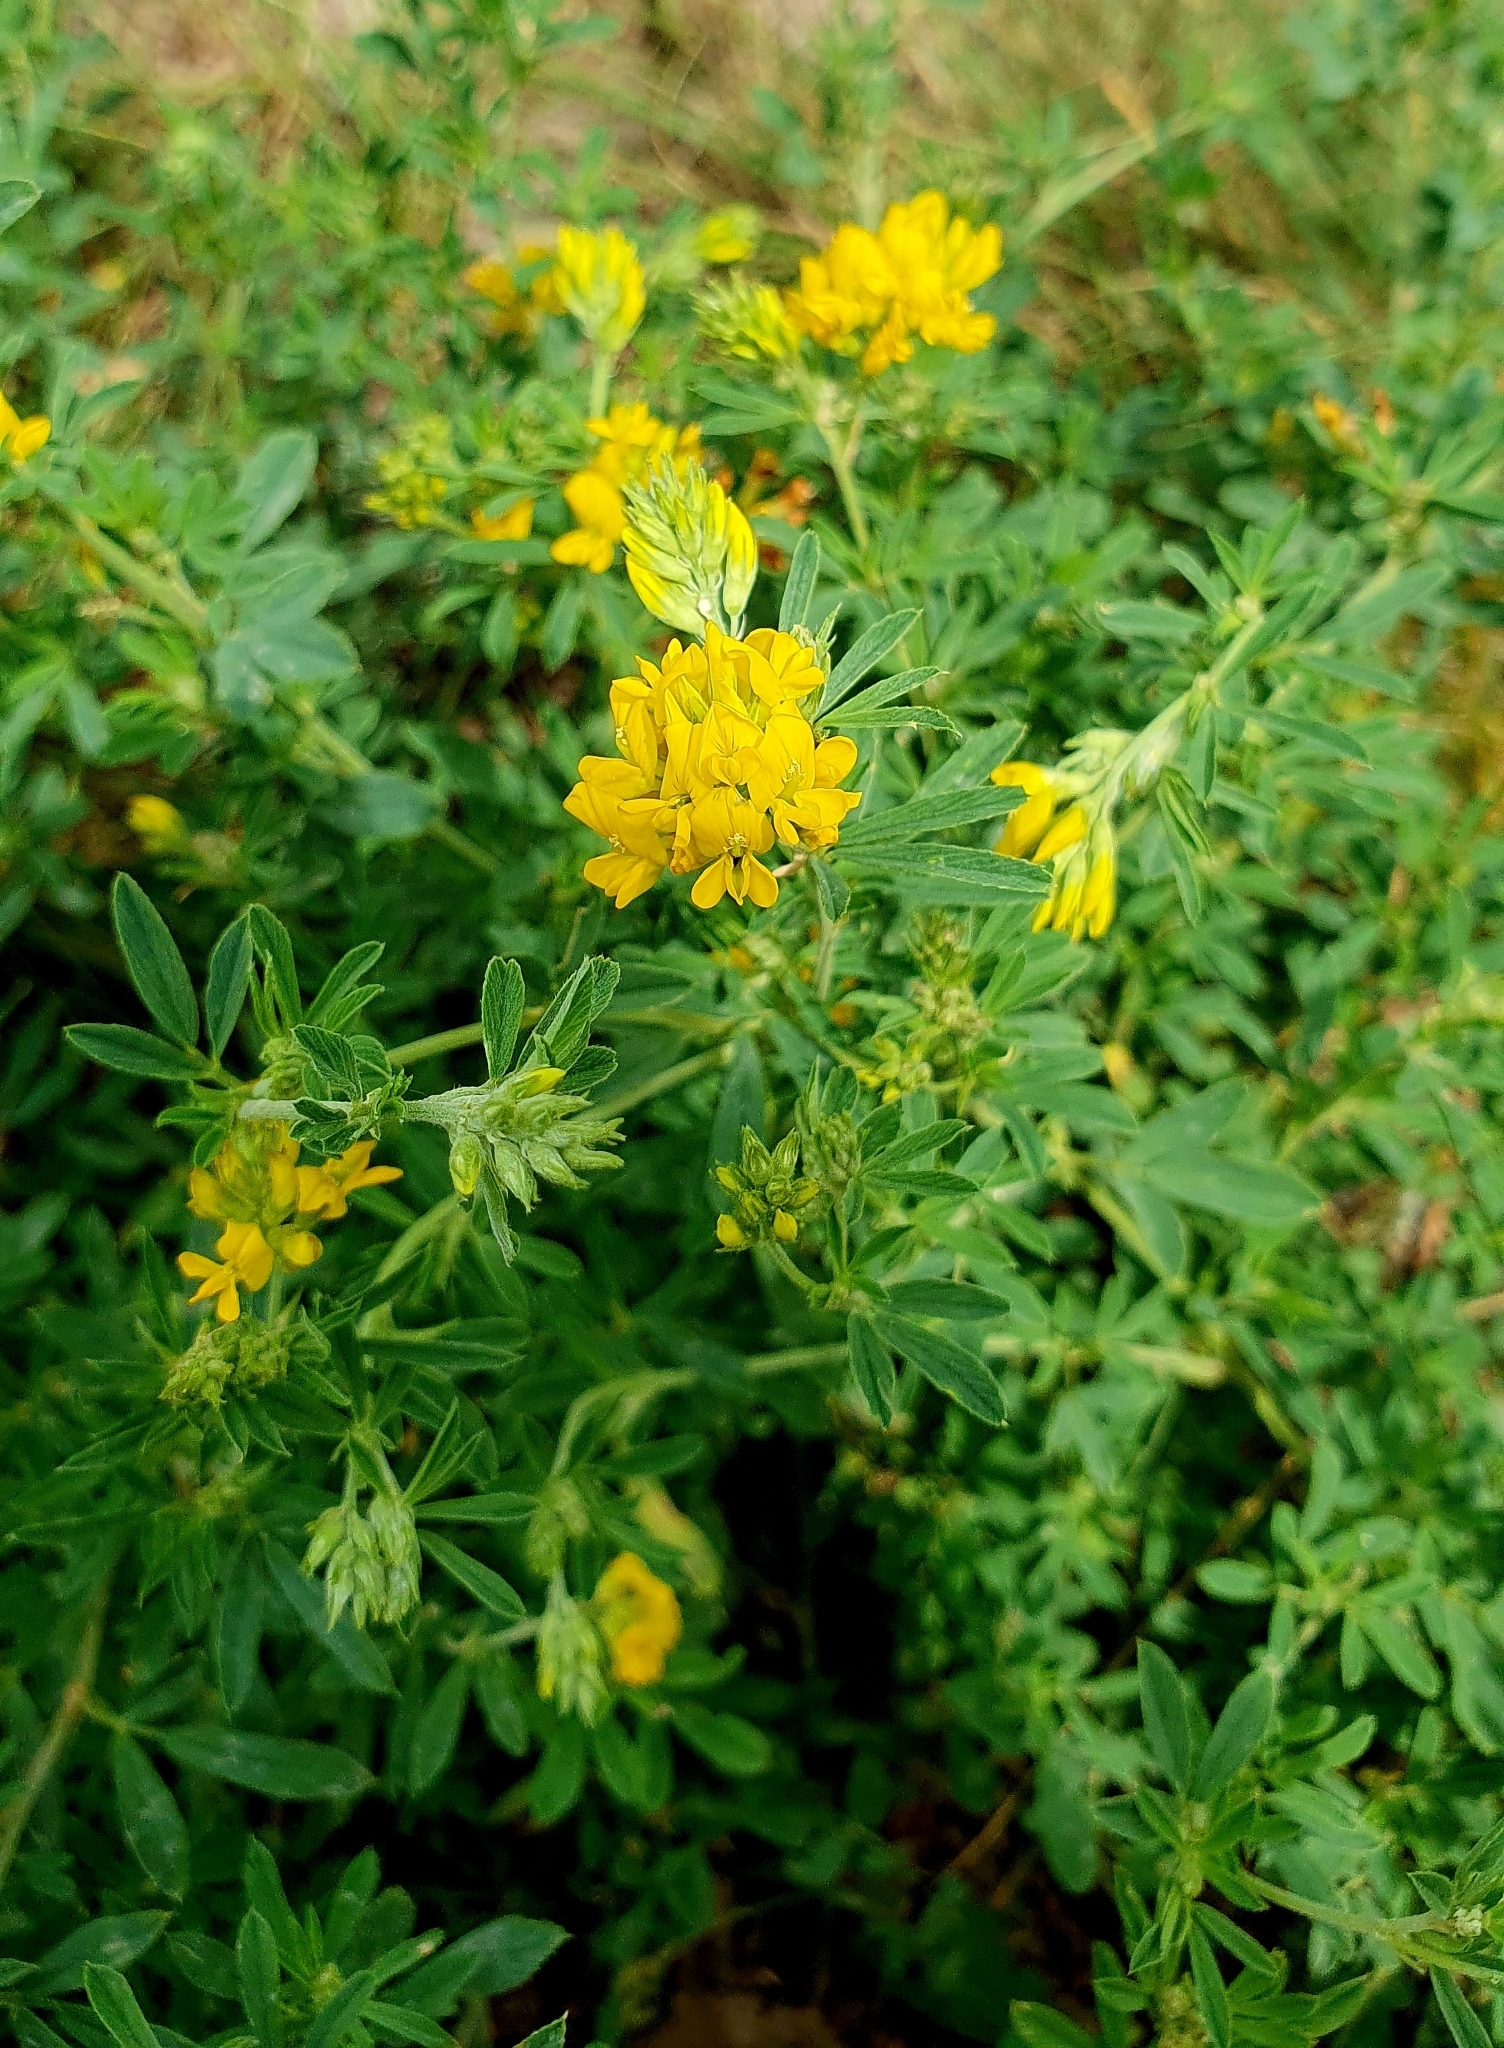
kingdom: Plantae
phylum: Tracheophyta
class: Magnoliopsida
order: Fabales
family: Fabaceae
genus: Medicago
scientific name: Medicago falcata
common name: Sickle medick
